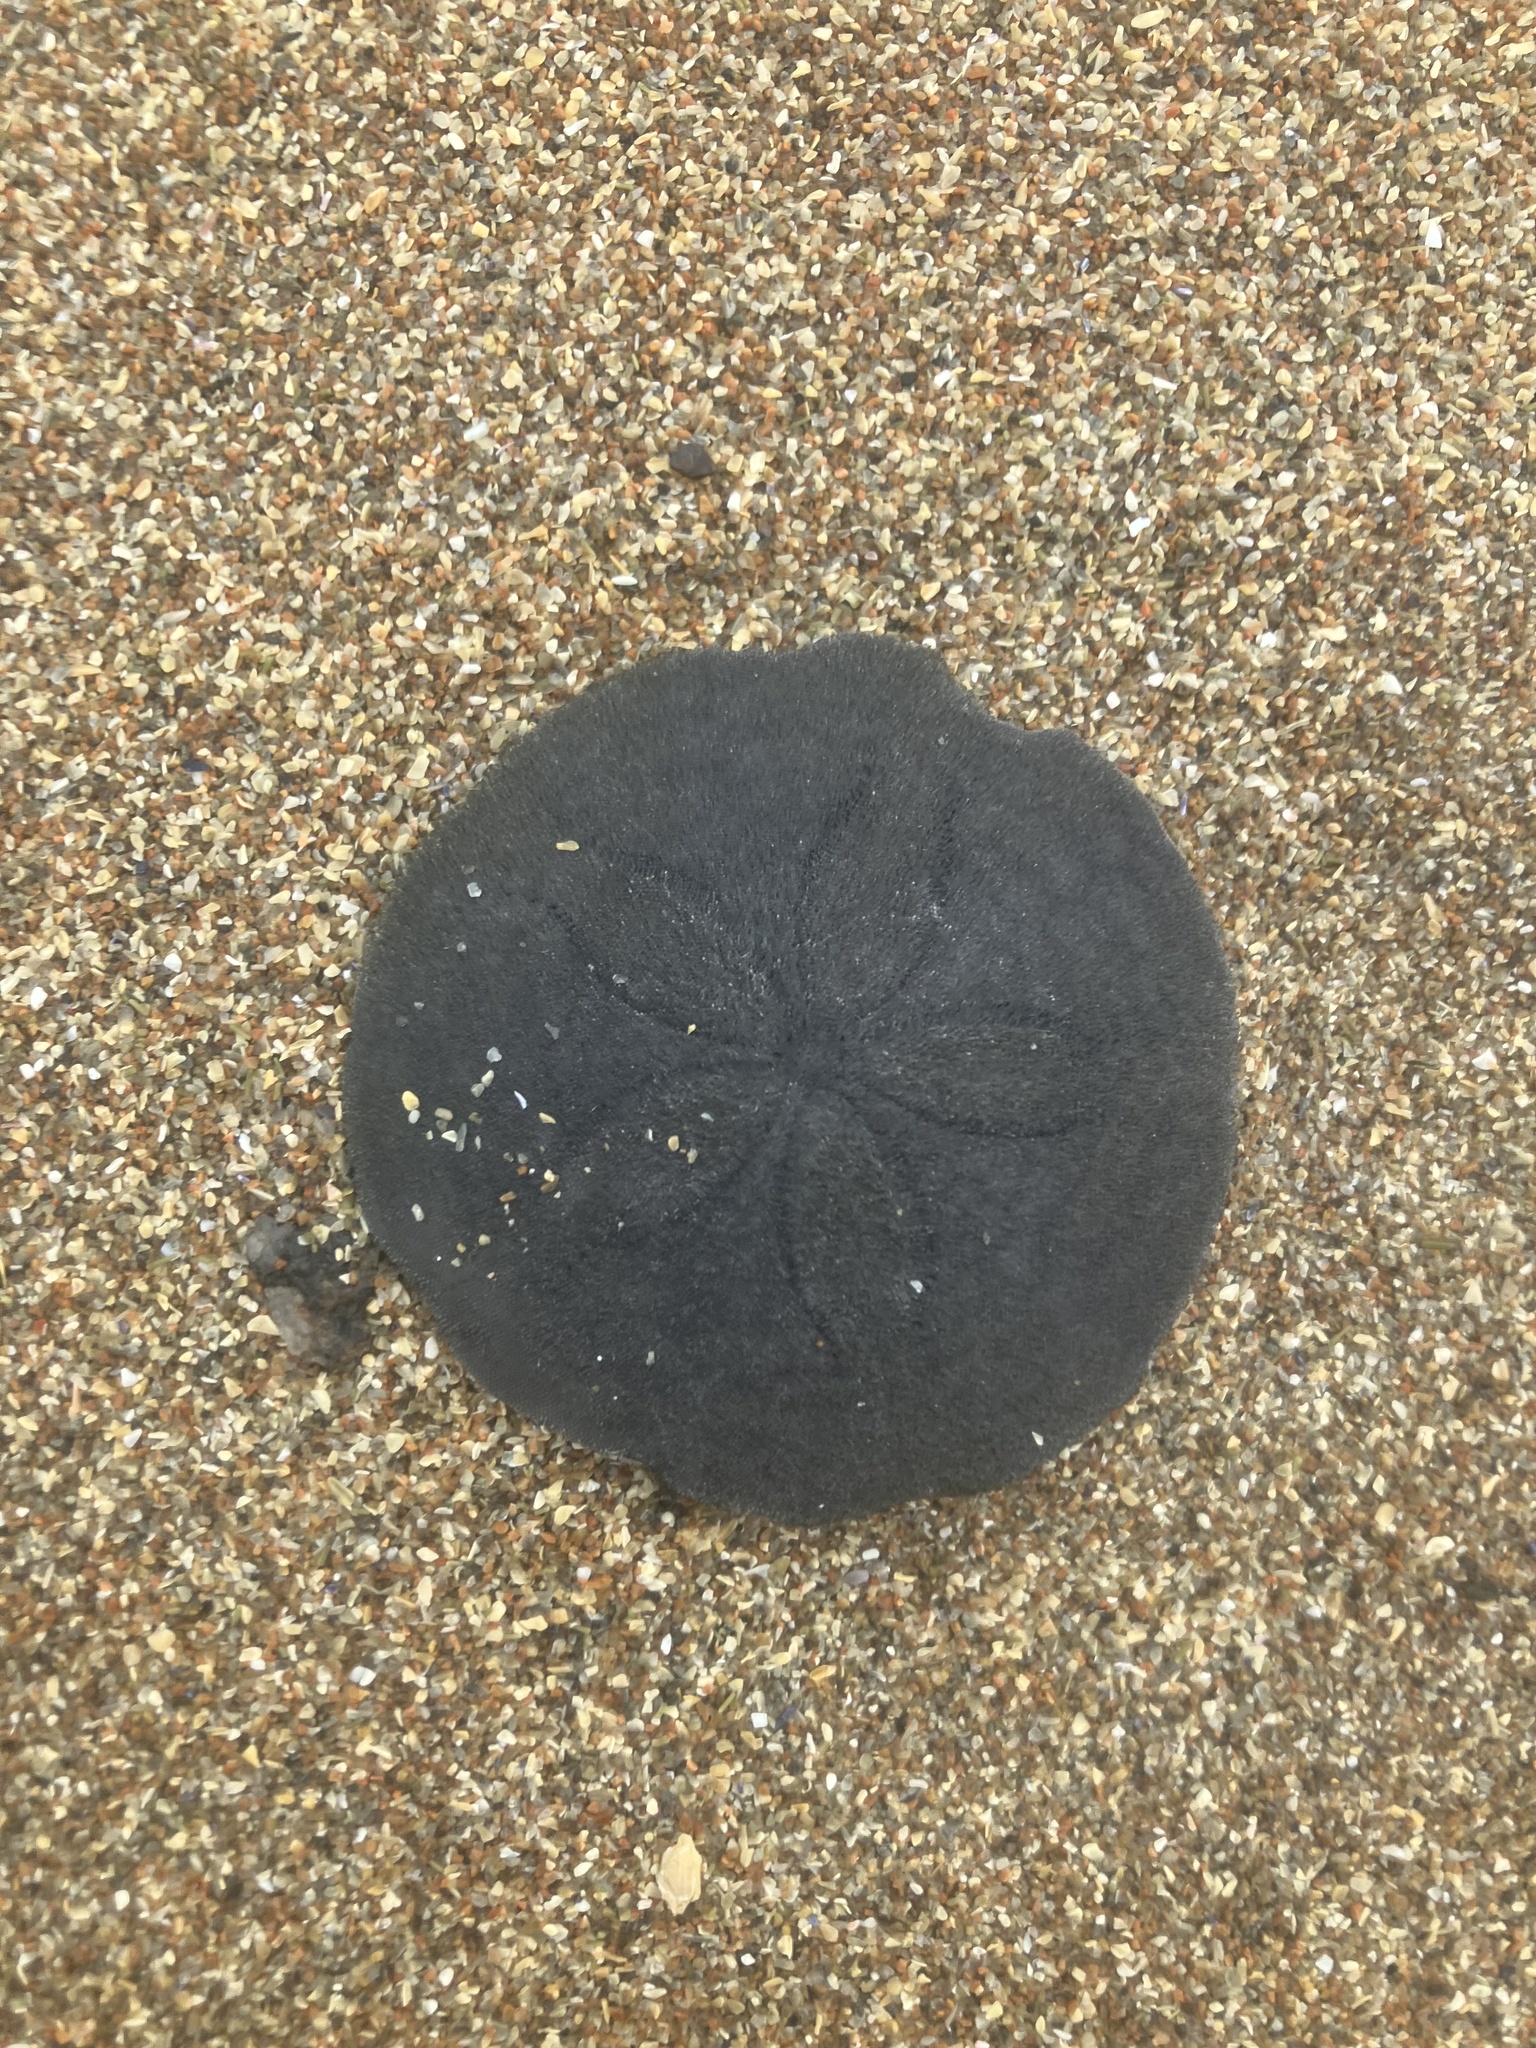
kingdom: Animalia
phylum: Echinodermata
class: Echinoidea
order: Echinolampadacea
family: Echinarachniidae
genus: Echinarachnius
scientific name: Echinarachnius parma
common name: Common sand dollar
